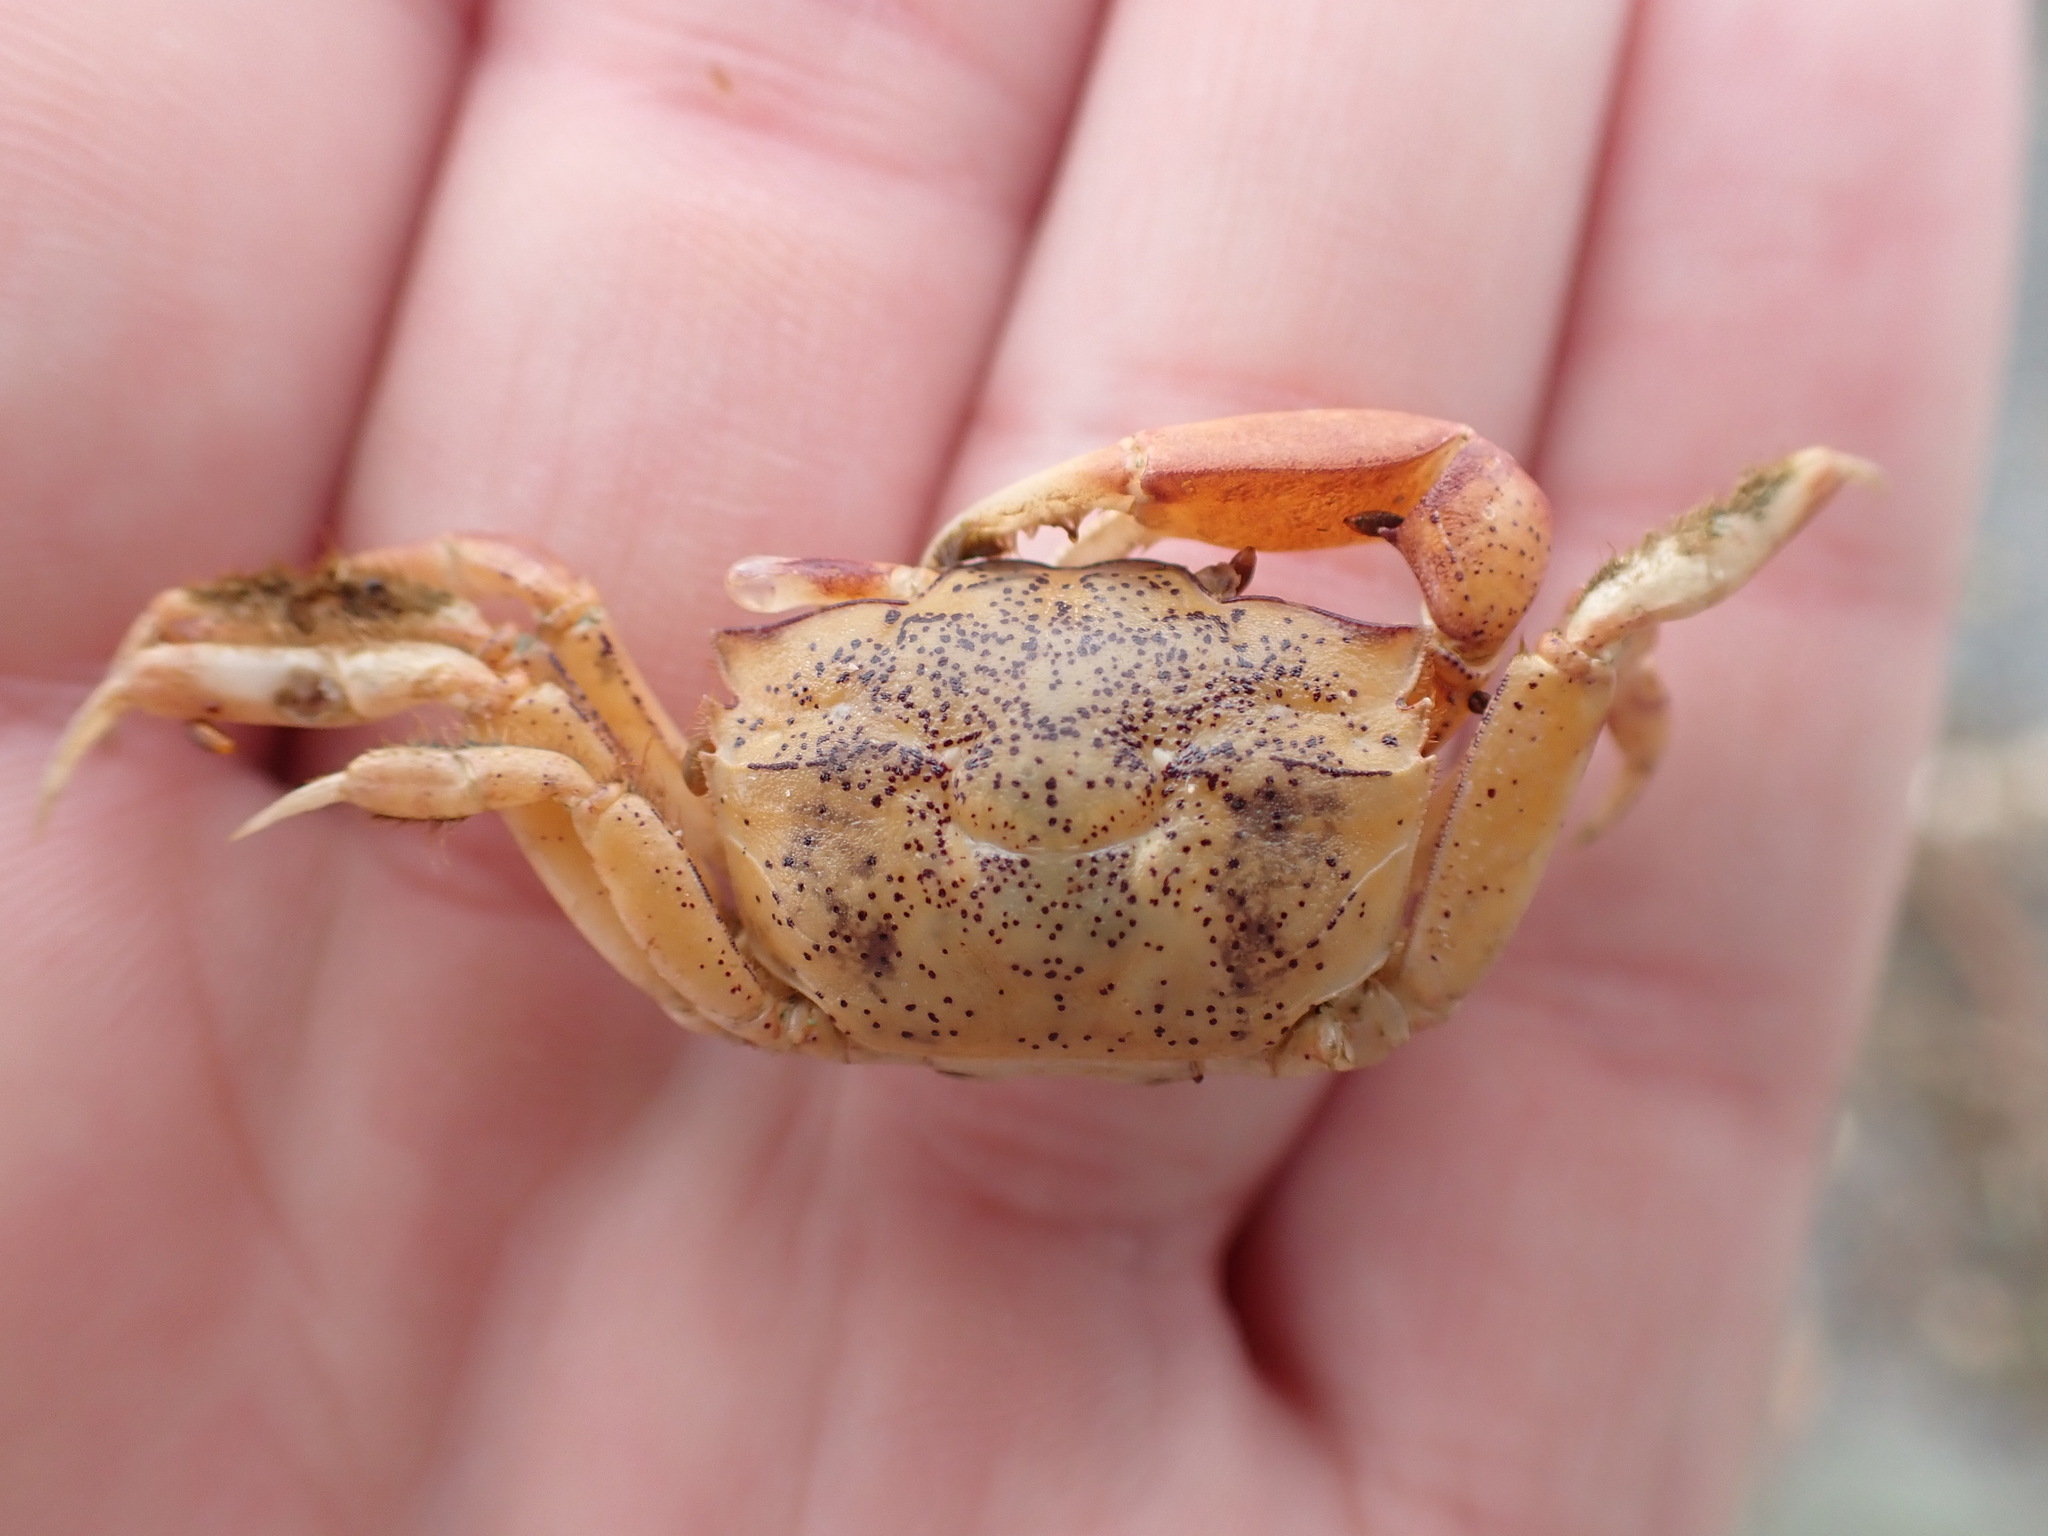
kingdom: Animalia
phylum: Arthropoda
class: Malacostraca
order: Decapoda
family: Macrophthalmidae
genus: Hemiplax
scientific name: Hemiplax hirtipes
